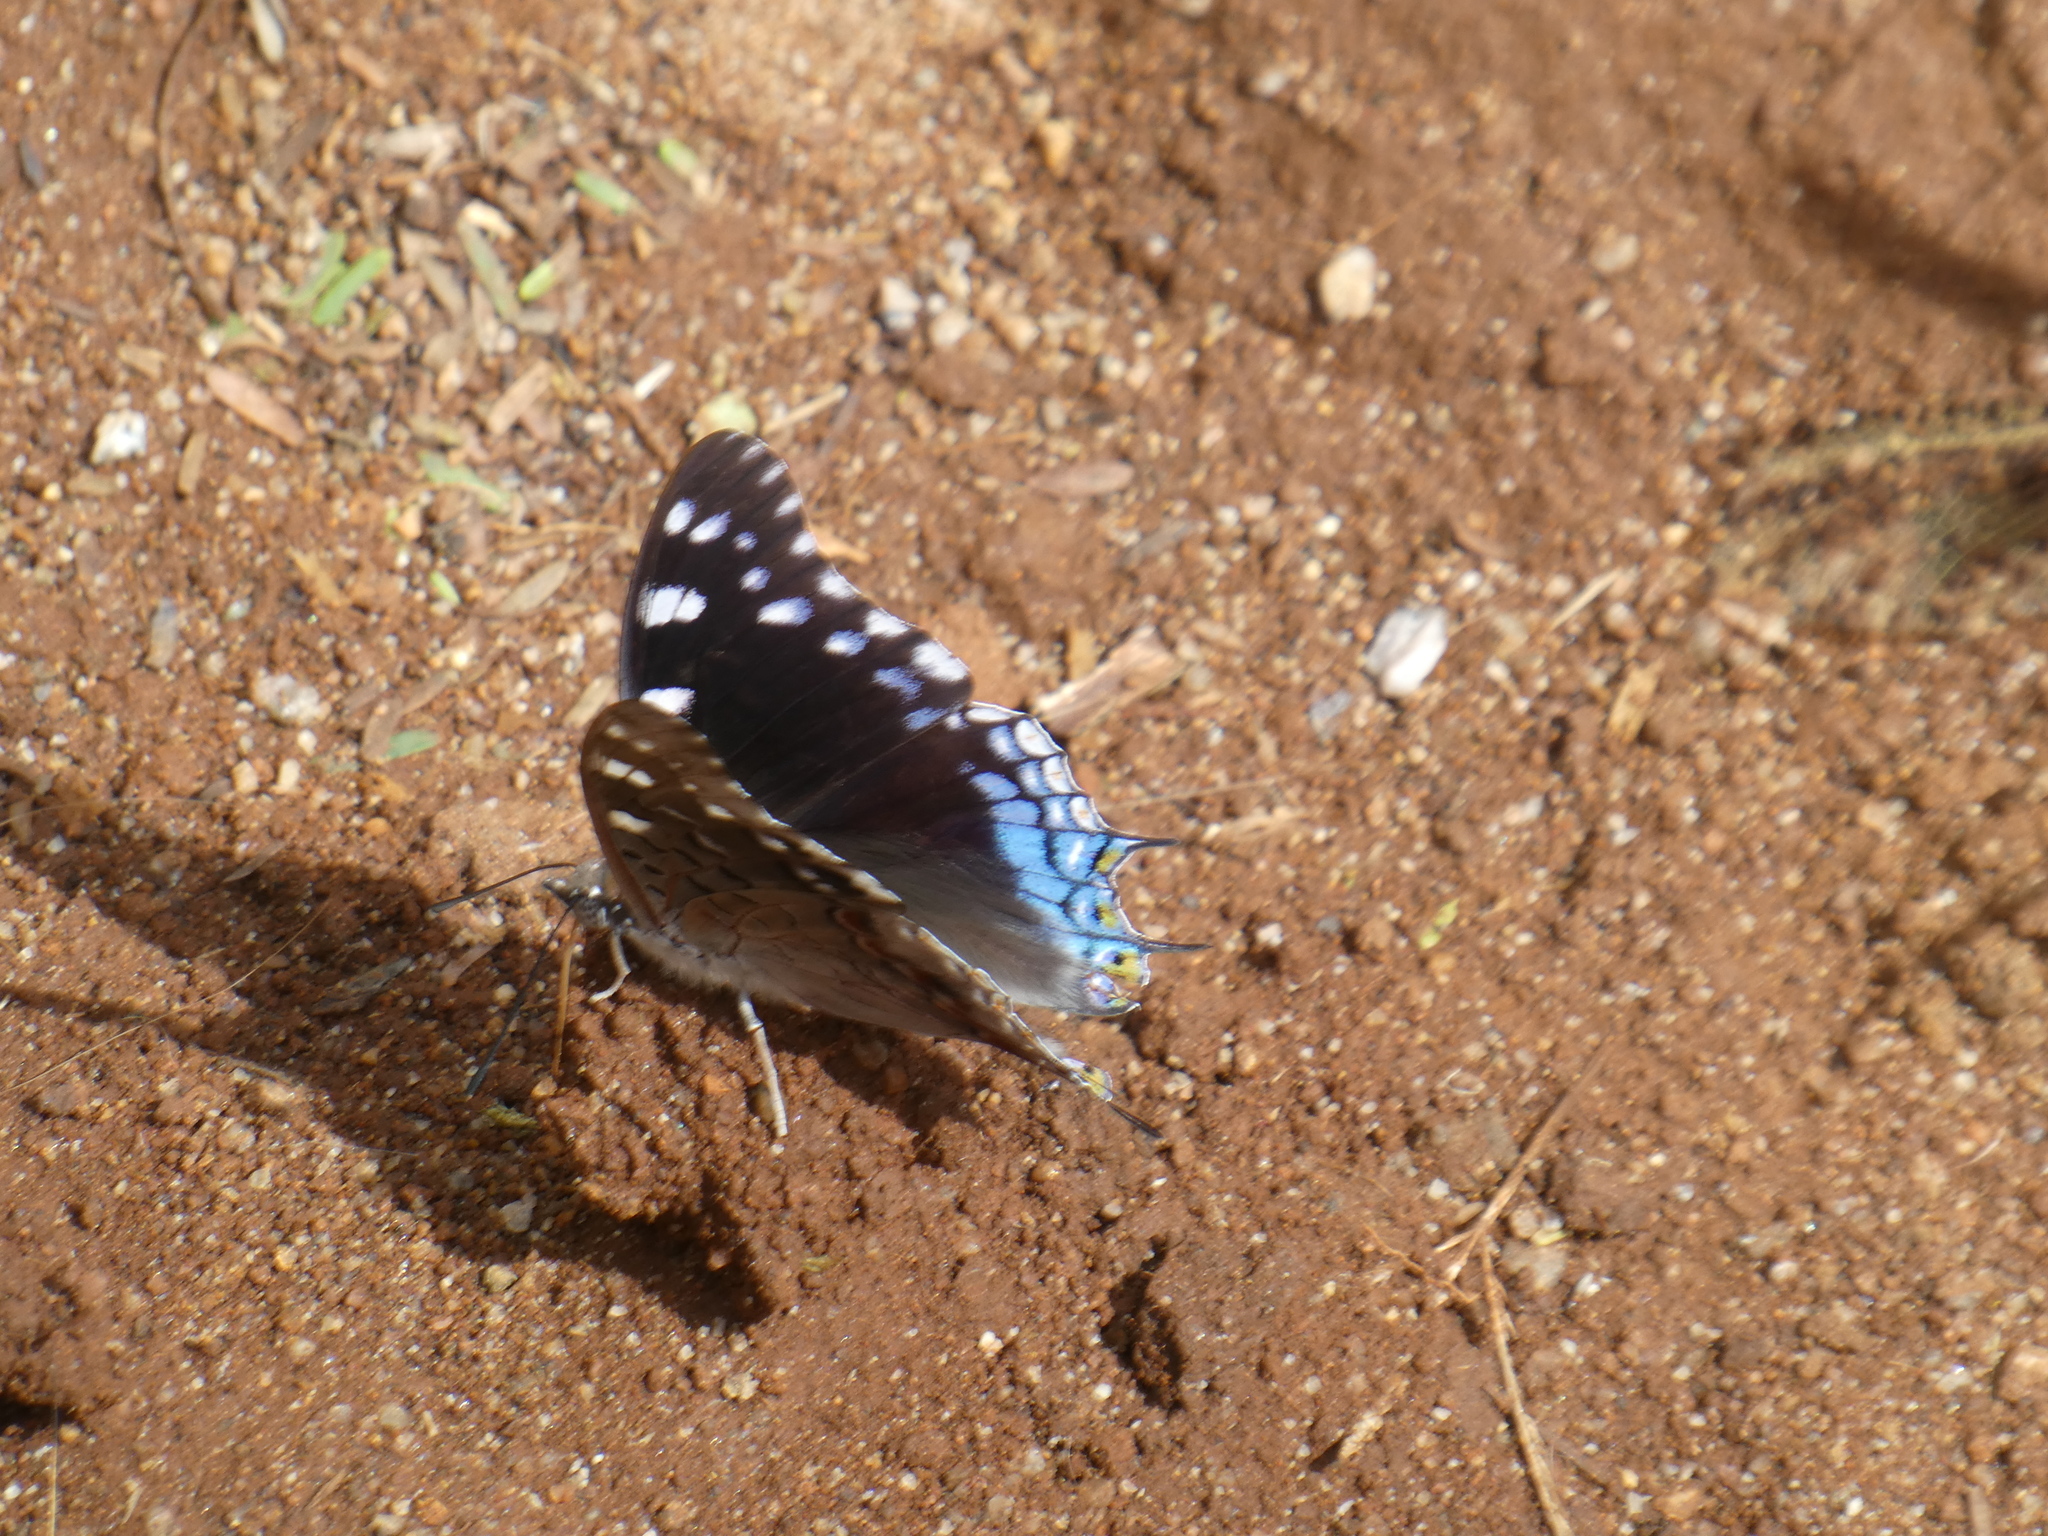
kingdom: Animalia
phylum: Arthropoda
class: Insecta
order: Lepidoptera
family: Nymphalidae
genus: Charaxes
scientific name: Charaxes guderiana
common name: Blue-spangled charaxes
